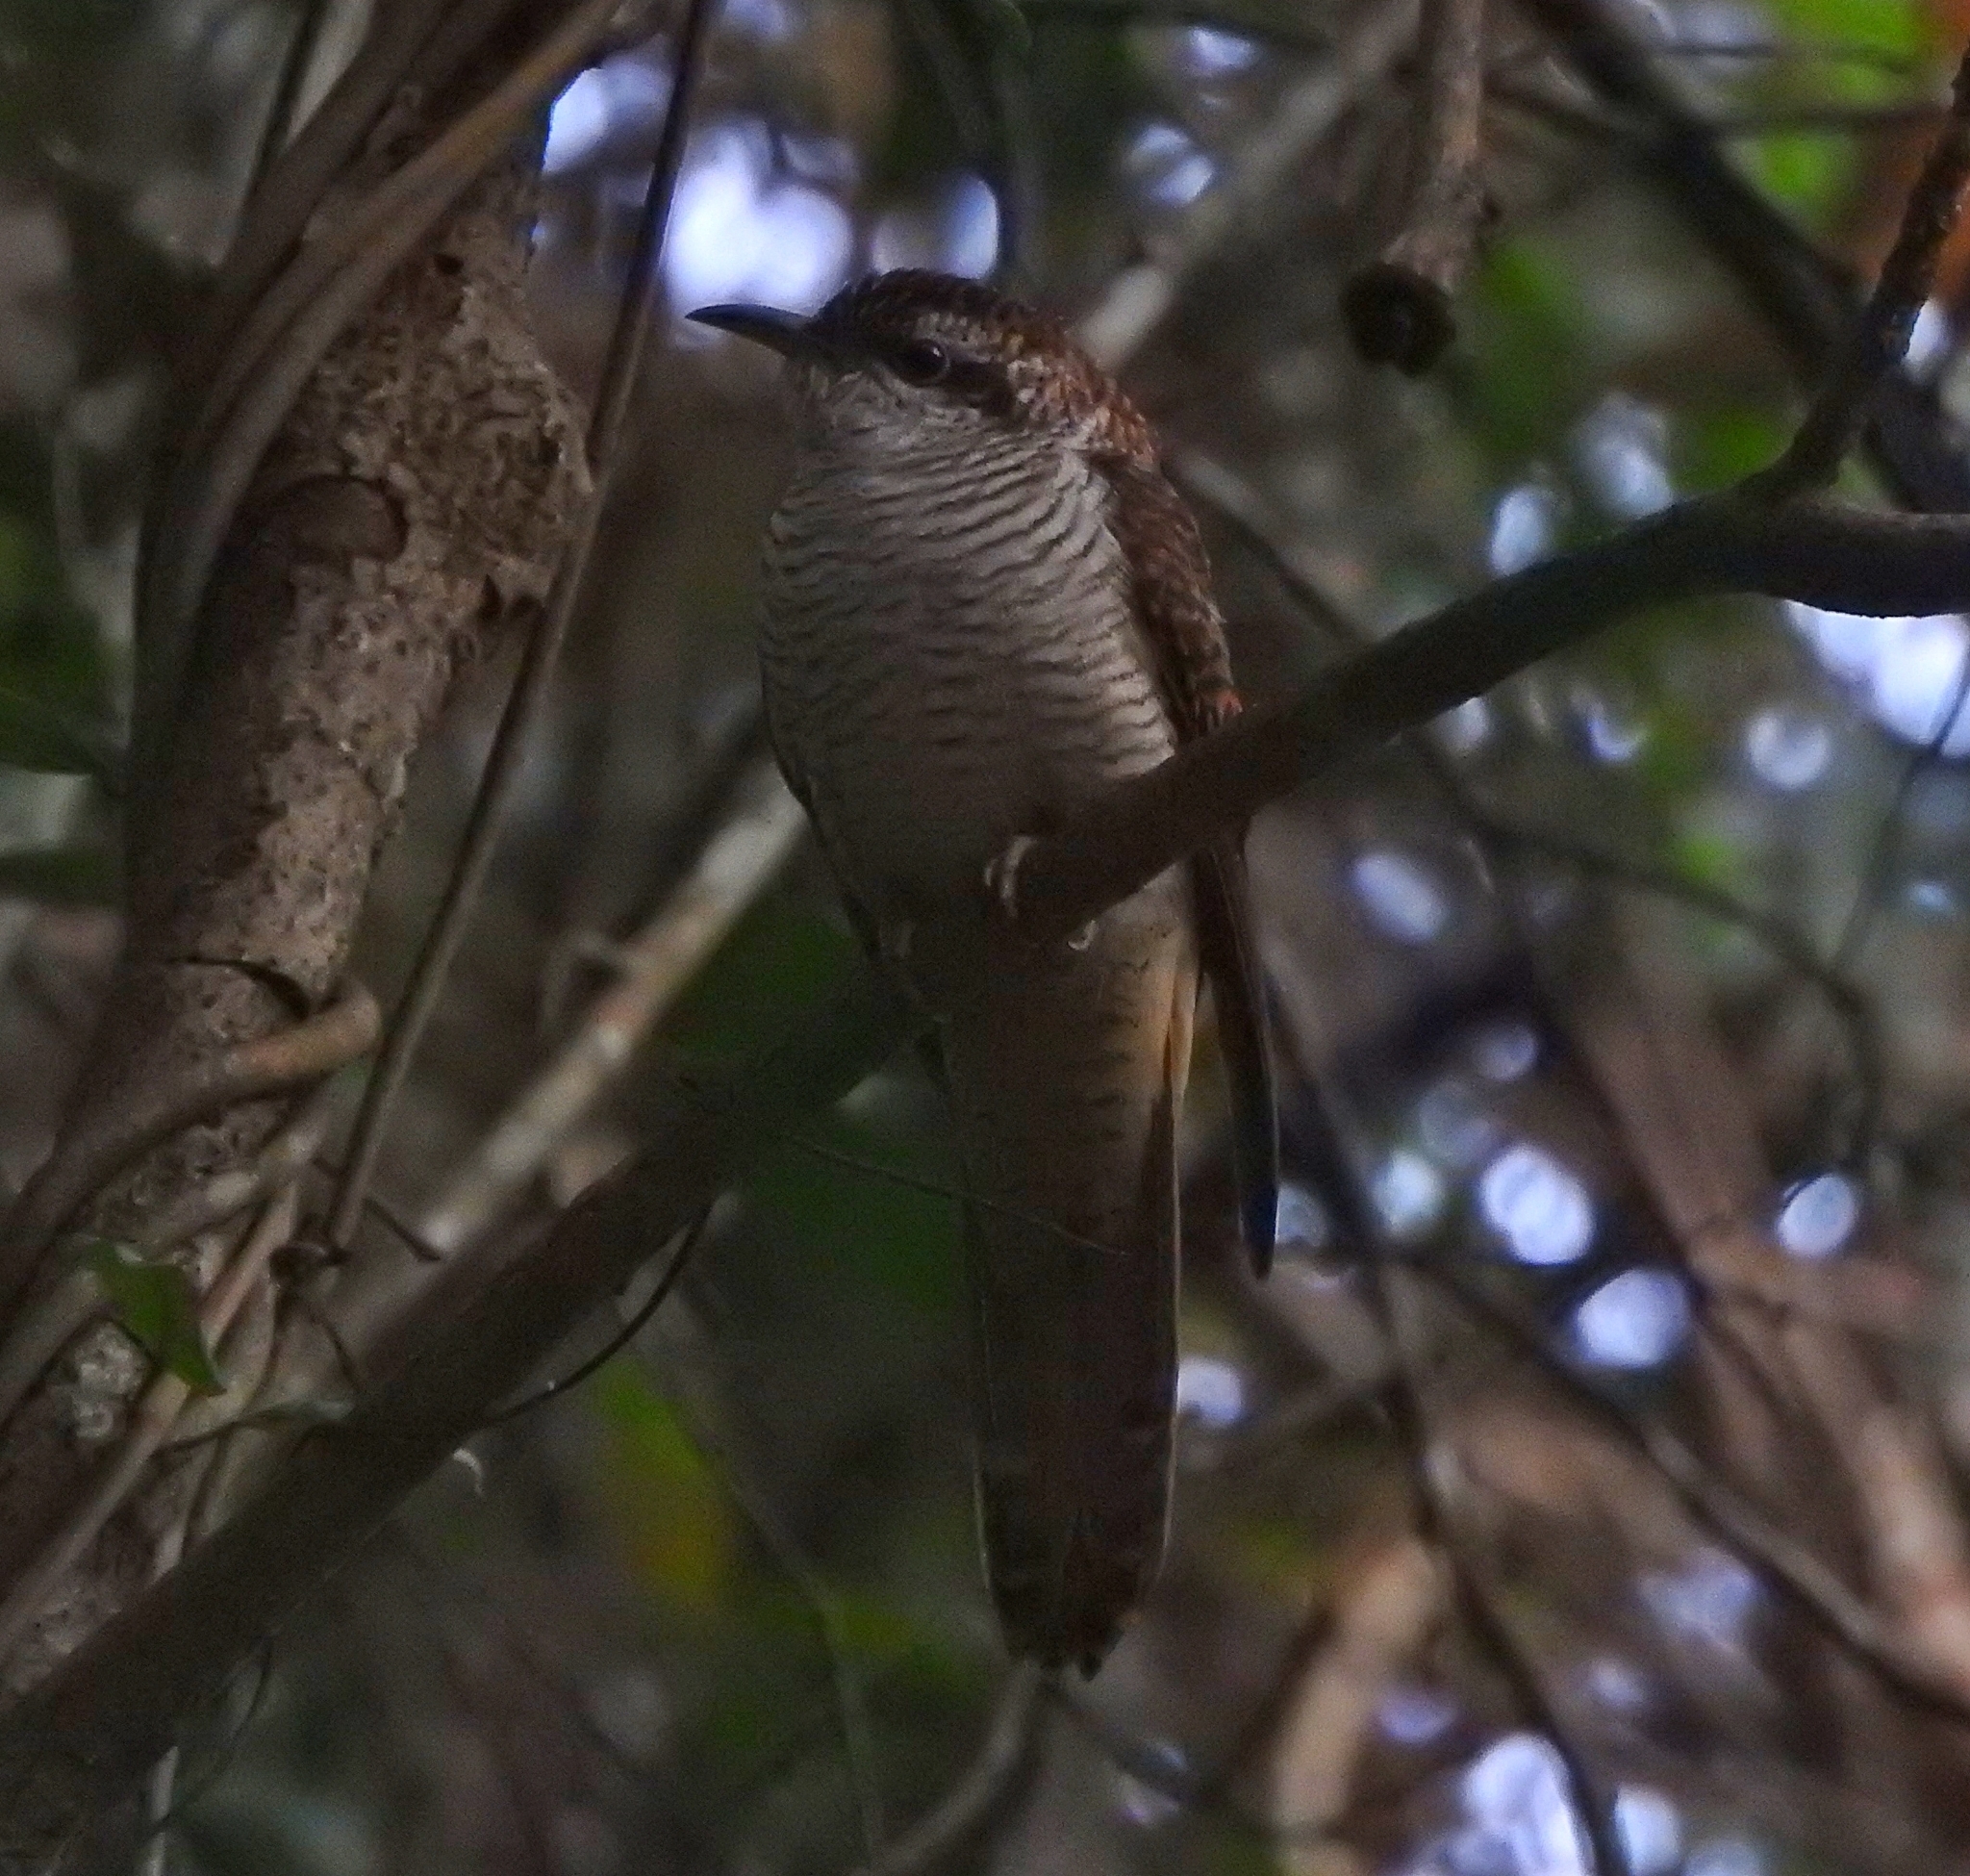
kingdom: Animalia
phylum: Chordata
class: Aves
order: Cuculiformes
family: Cuculidae
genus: Cacomantis
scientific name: Cacomantis sonneratii
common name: Banded bay cuckoo
